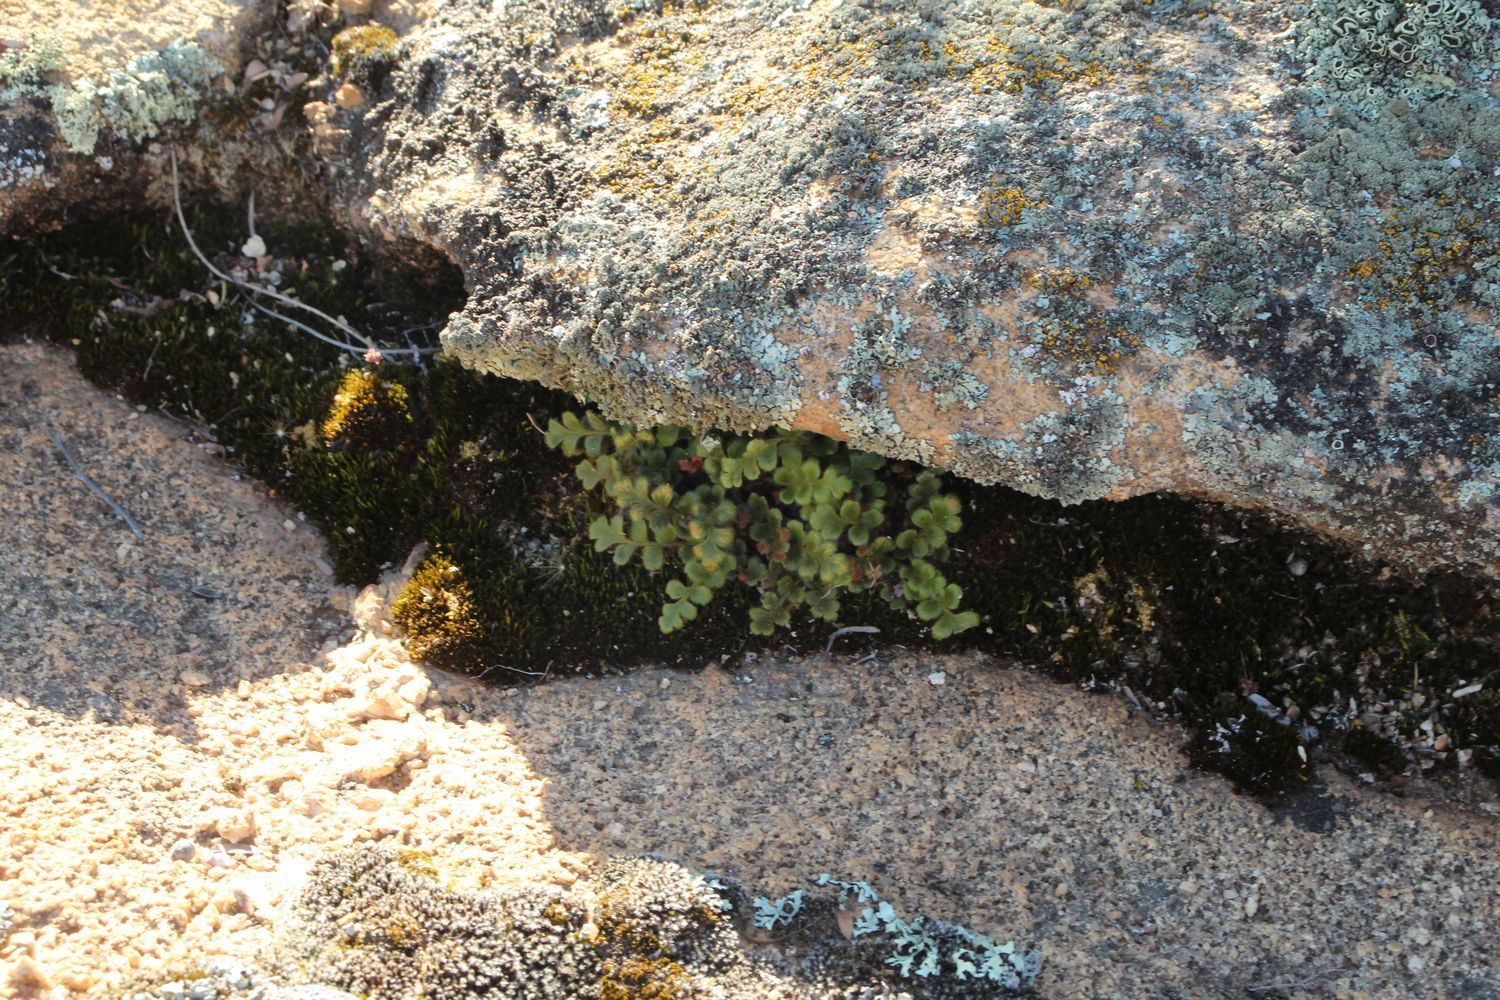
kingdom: Plantae
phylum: Tracheophyta
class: Polypodiopsida
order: Polypodiales
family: Aspleniaceae
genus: Asplenium
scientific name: Asplenium subglandulosum
